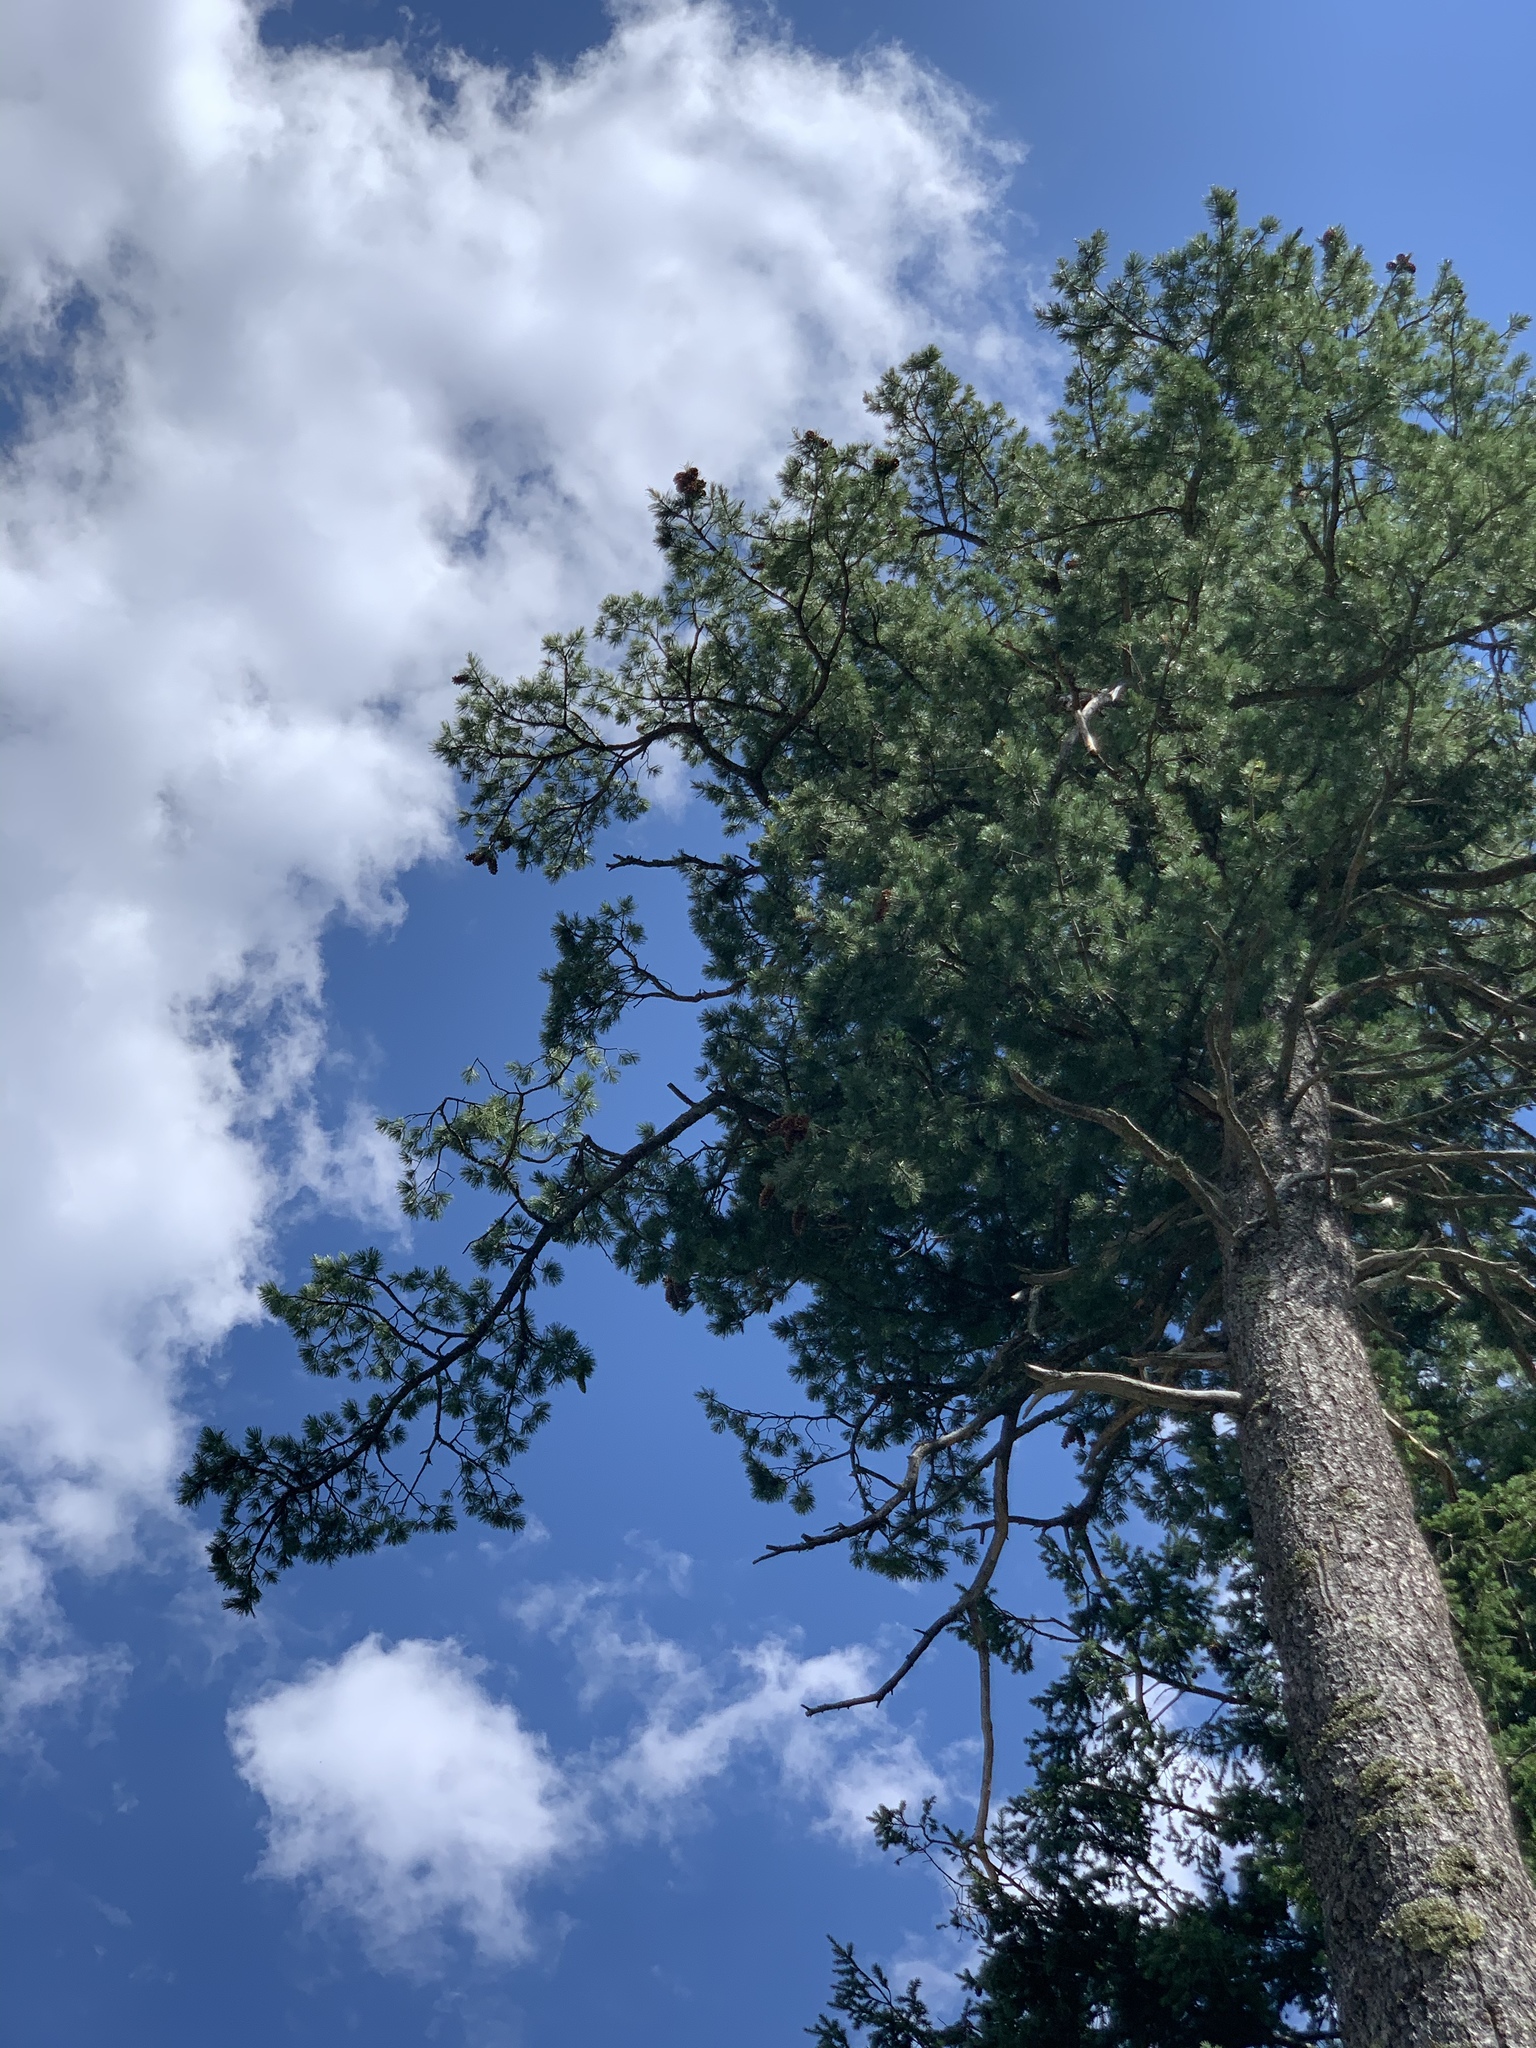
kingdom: Plantae
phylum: Tracheophyta
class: Pinopsida
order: Pinales
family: Pinaceae
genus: Pinus
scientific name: Pinus strobiformis
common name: Southwestern white pine
